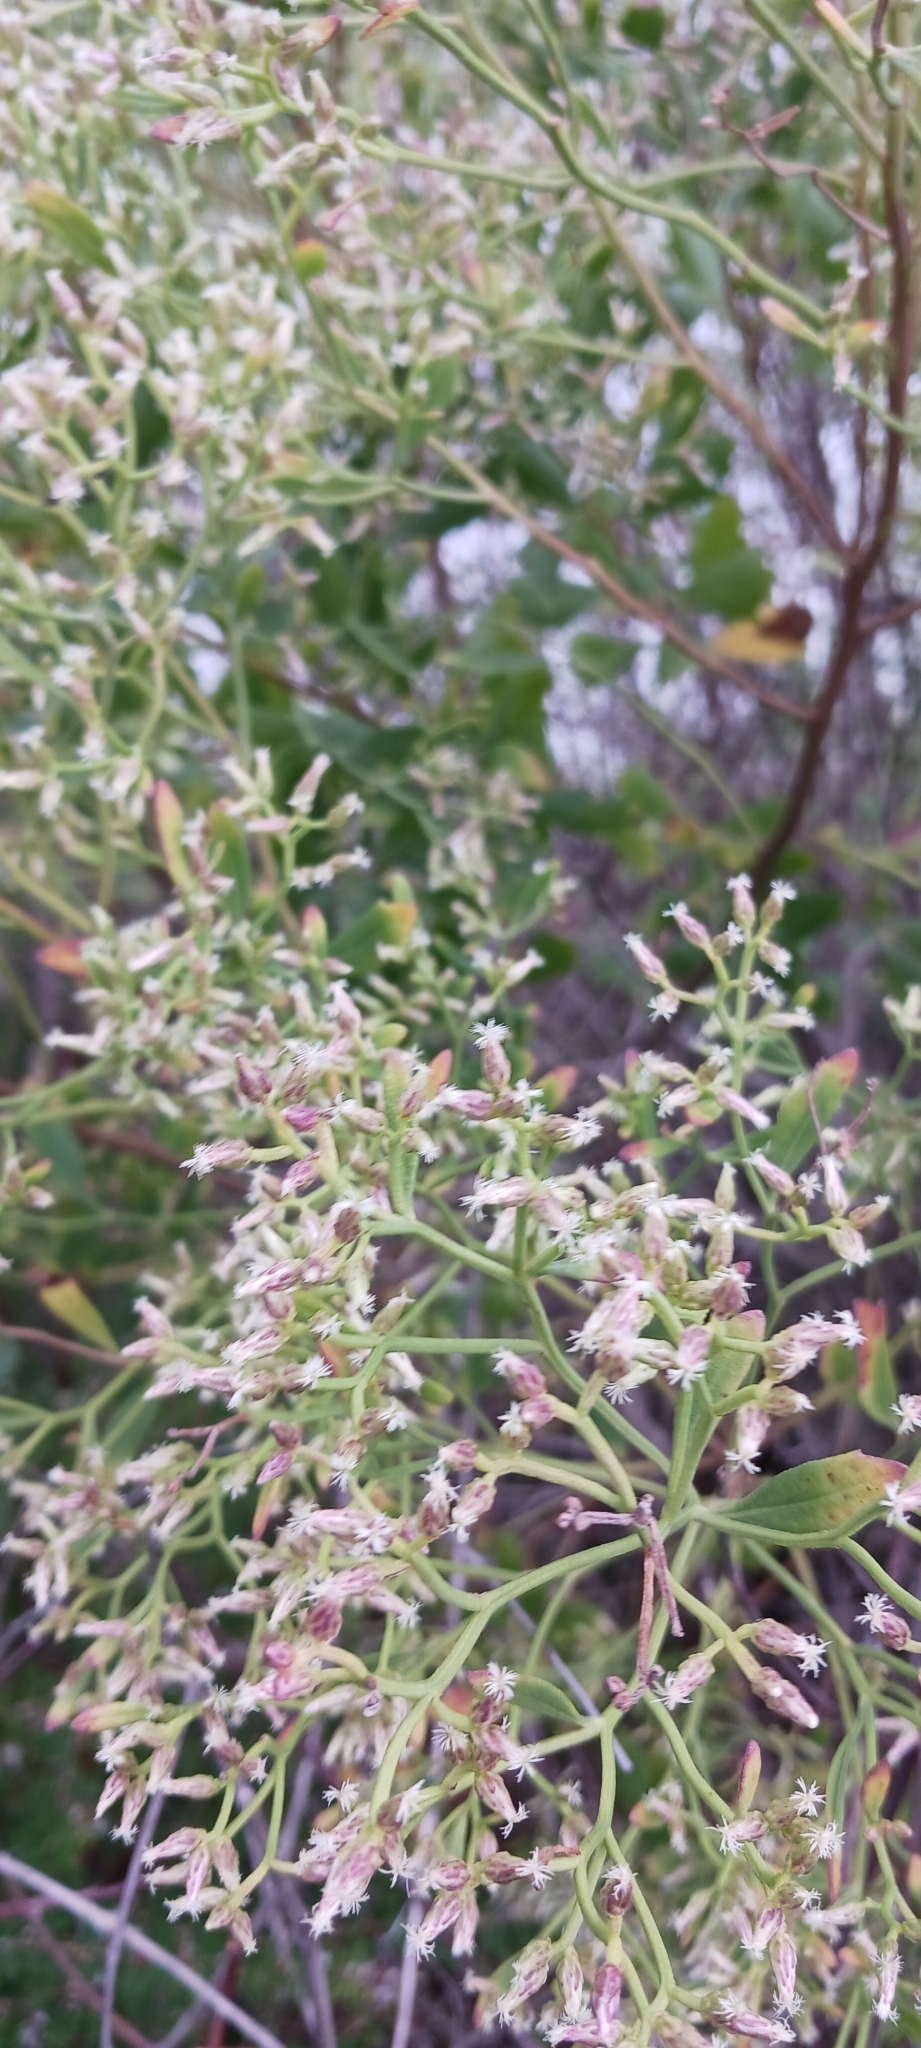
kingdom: Plantae
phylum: Tracheophyta
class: Magnoliopsida
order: Asterales
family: Asteraceae
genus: Baccharis
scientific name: Baccharis halimifolia
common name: Eastern baccharis
